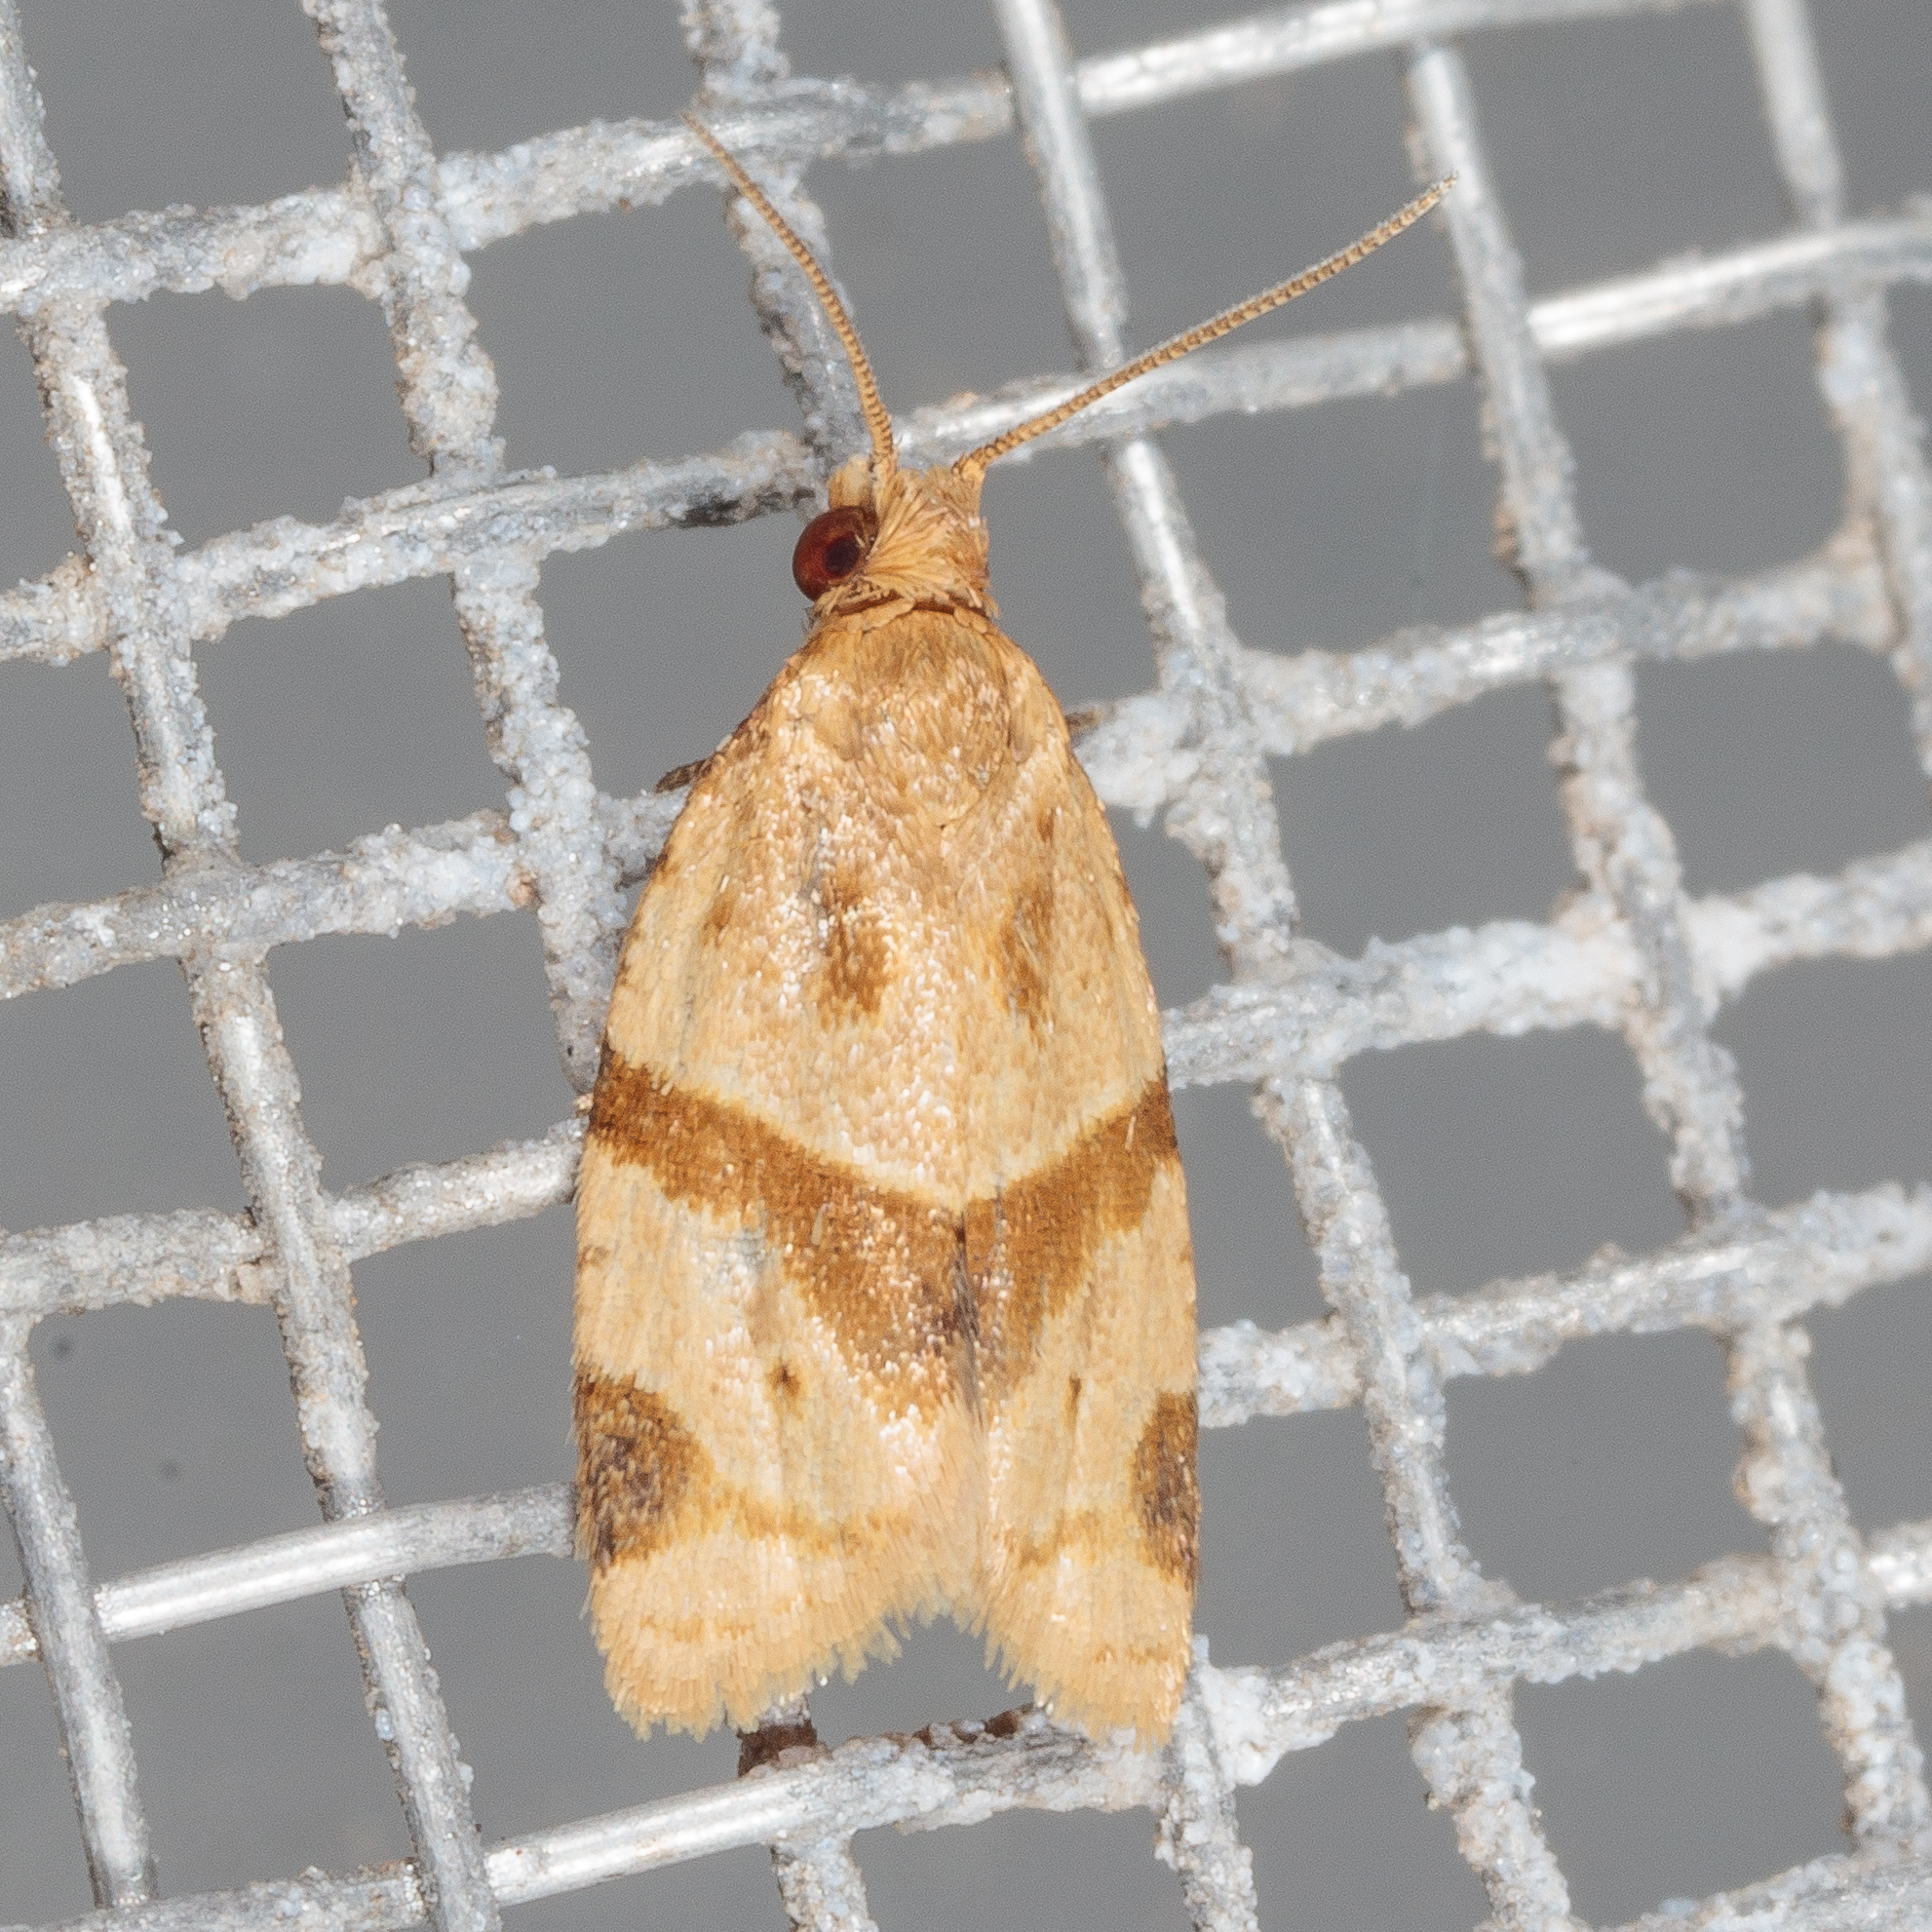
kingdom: Animalia
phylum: Arthropoda
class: Insecta
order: Lepidoptera
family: Tortricidae
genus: Clepsis
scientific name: Clepsis peritana
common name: Garden tortrix
